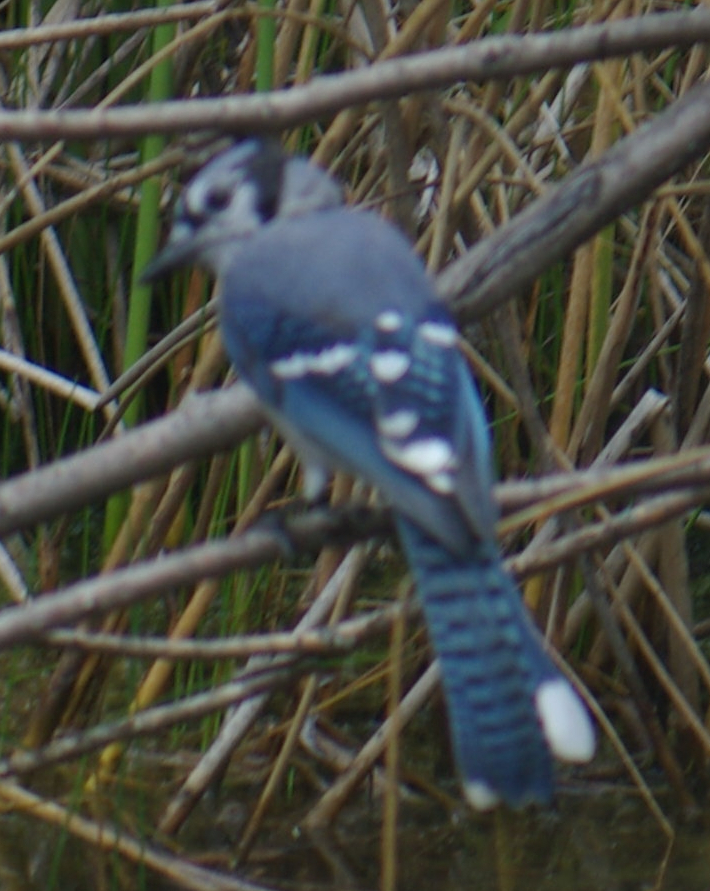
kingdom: Animalia
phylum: Chordata
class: Aves
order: Passeriformes
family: Corvidae
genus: Cyanocitta
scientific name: Cyanocitta cristata
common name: Blue jay
